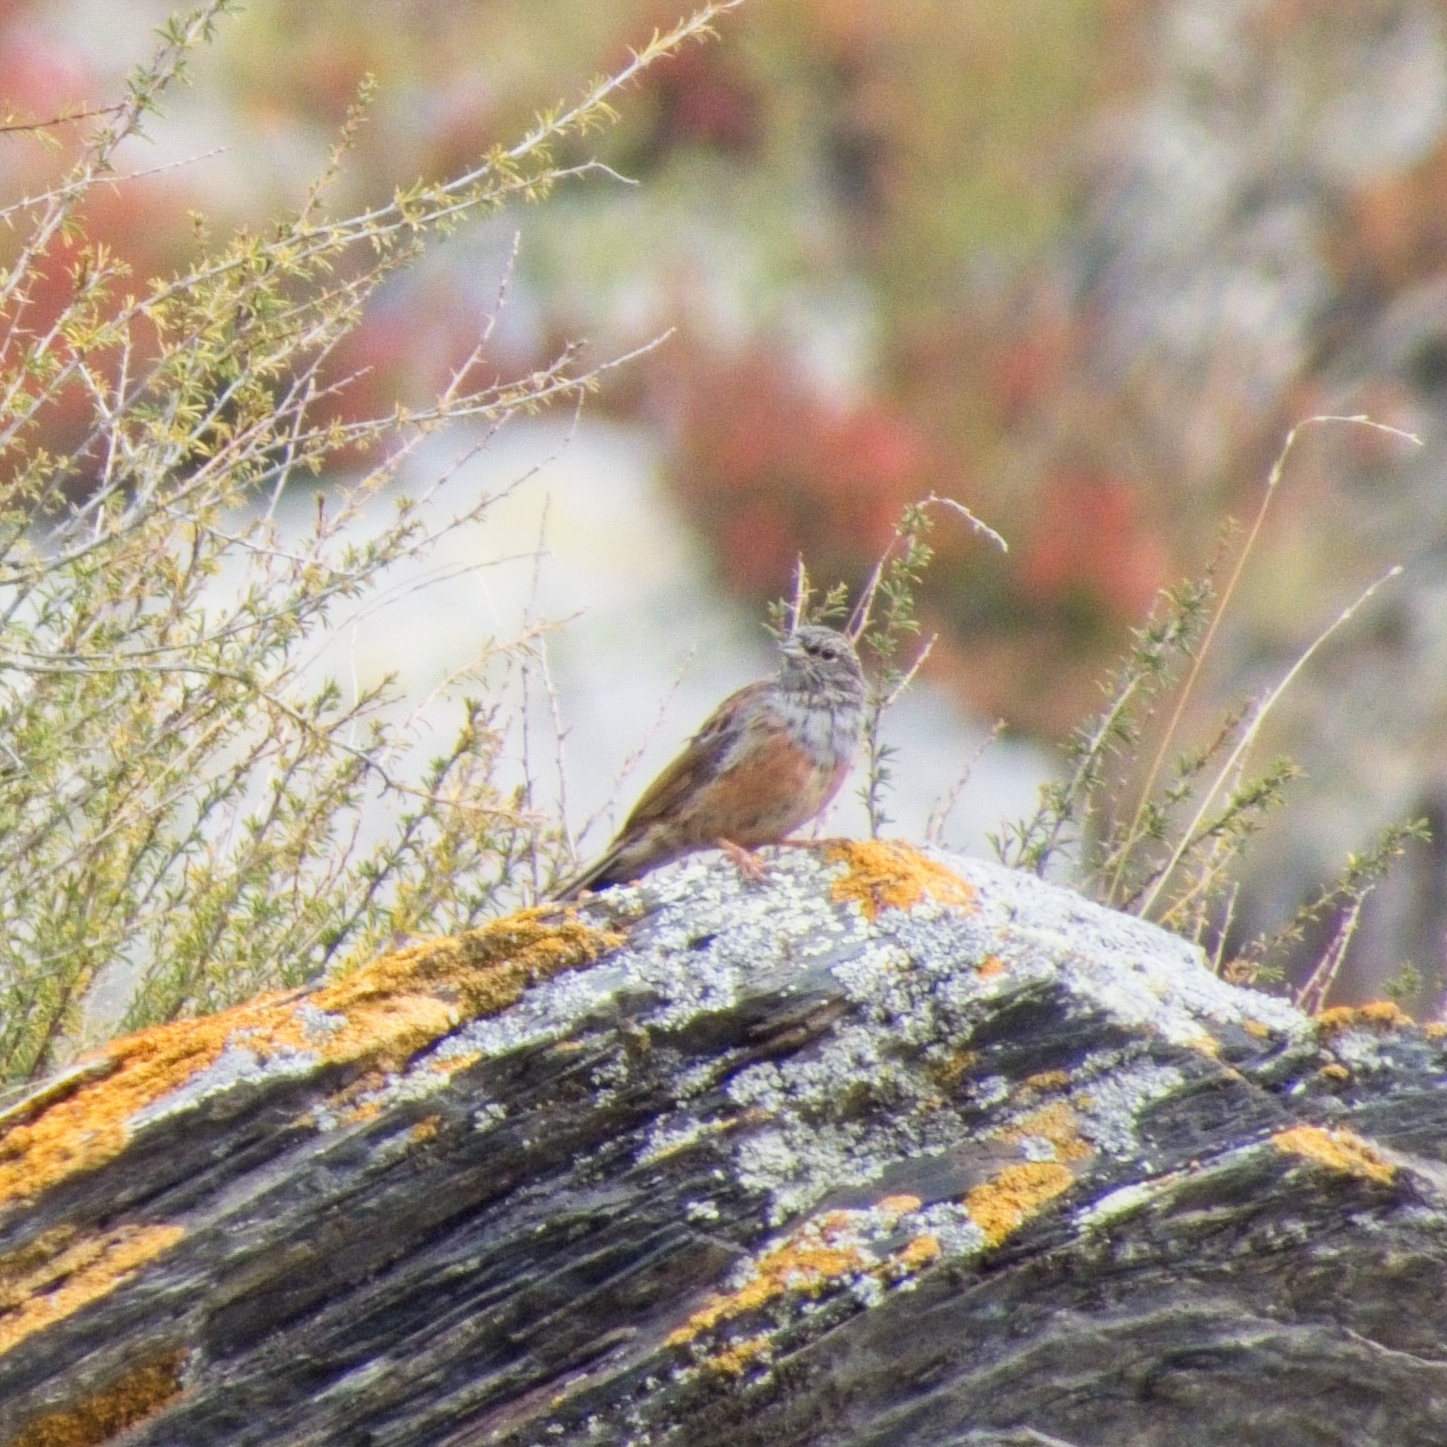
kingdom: Animalia
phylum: Chordata
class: Aves
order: Passeriformes
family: Emberizidae
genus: Emberiza
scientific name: Emberiza godlewskii
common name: Godlewski's bunting
